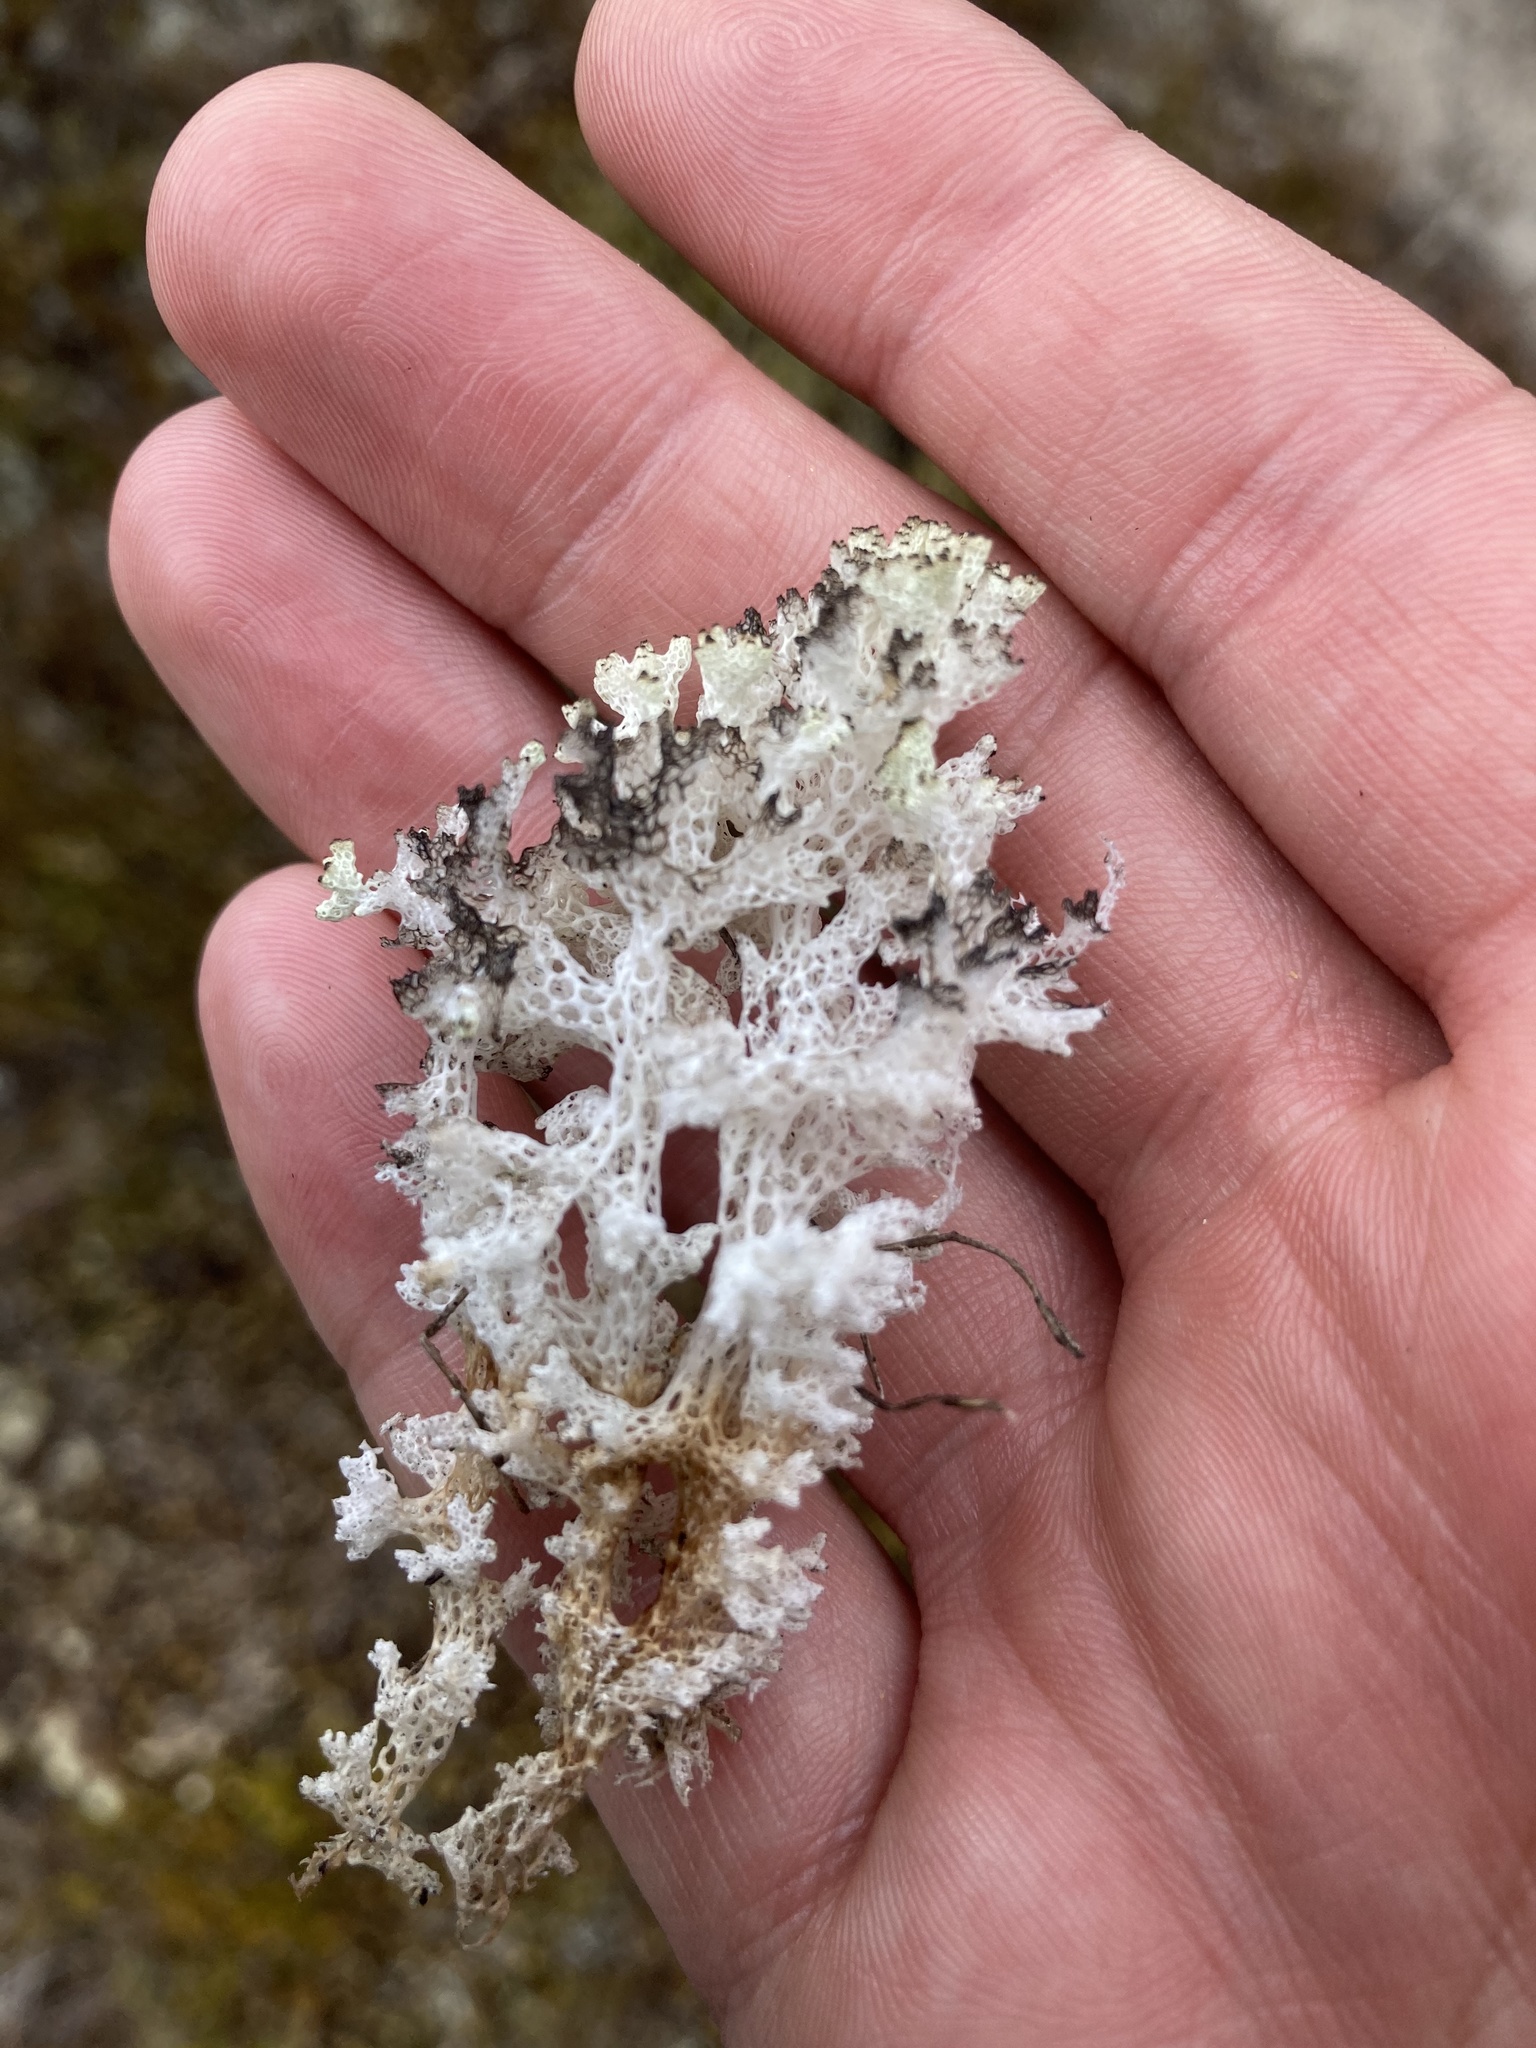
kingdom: Fungi
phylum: Ascomycota
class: Lecanoromycetes
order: Lecanorales
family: Cladoniaceae
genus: Pulchrocladia
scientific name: Pulchrocladia retipora
